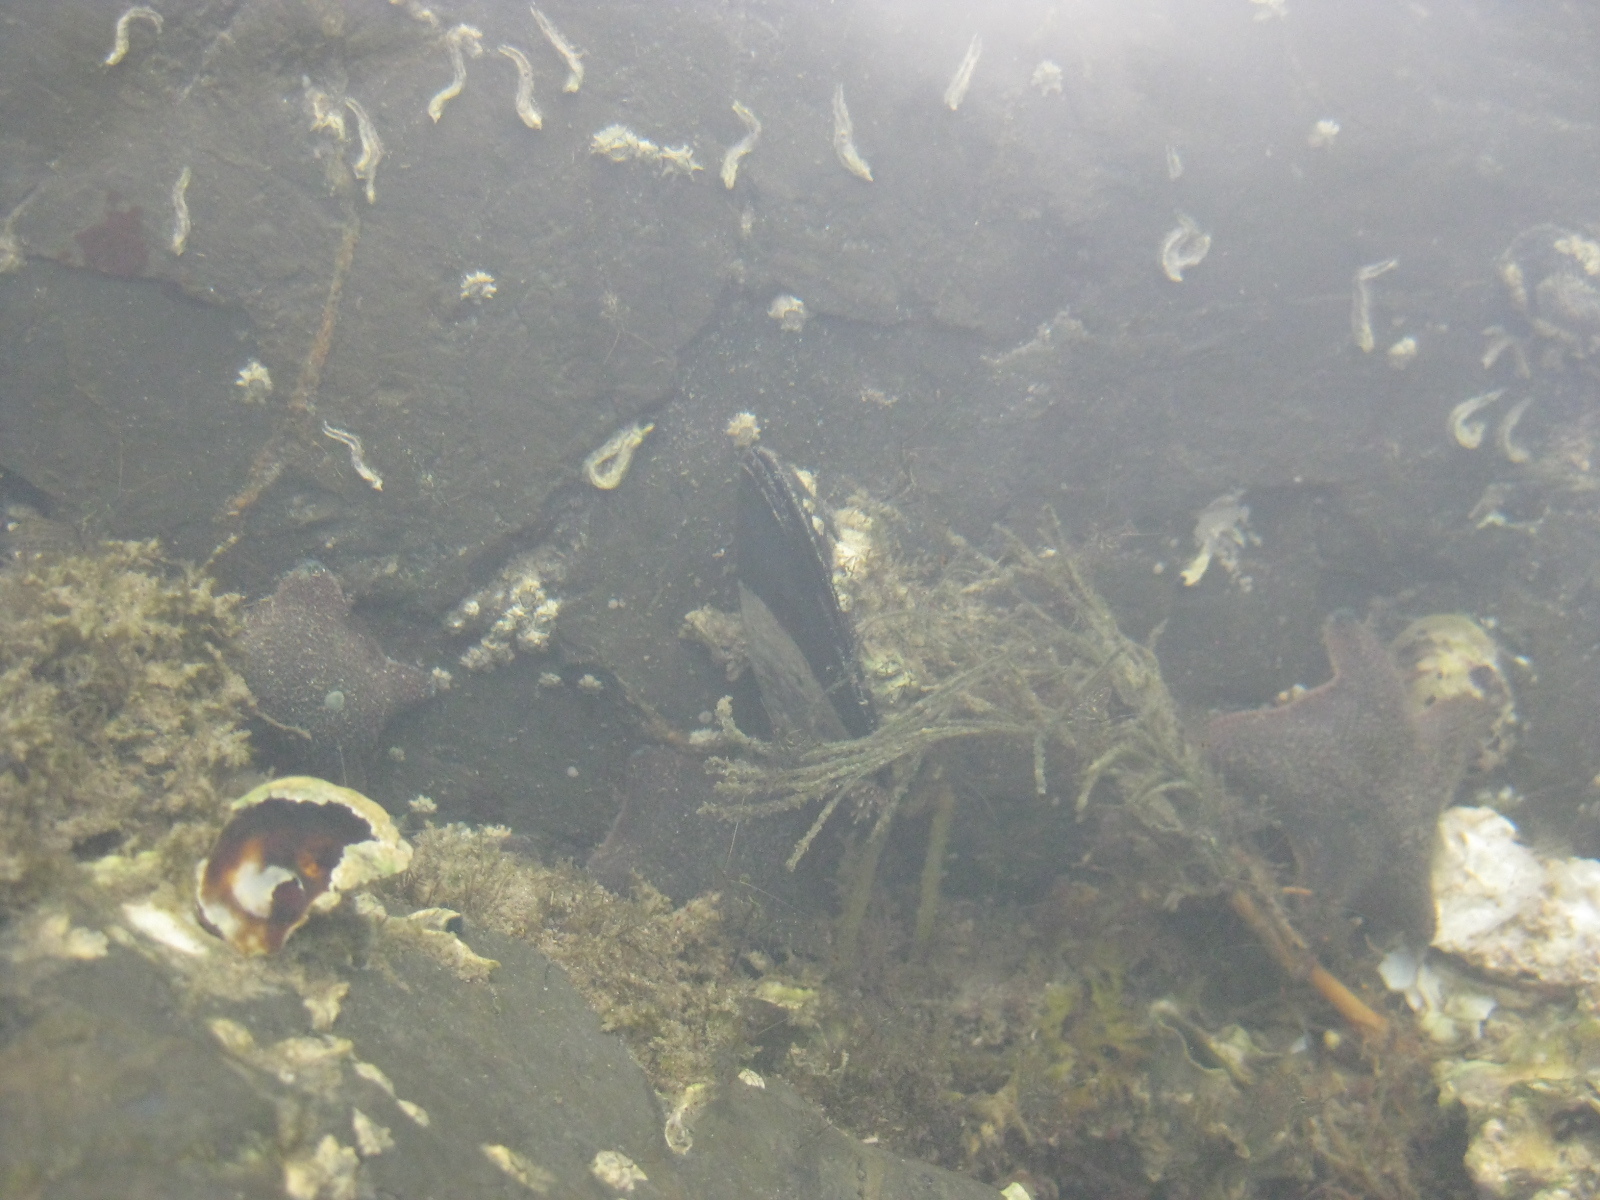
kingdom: Animalia
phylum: Mollusca
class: Bivalvia
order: Mytilida
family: Mytilidae
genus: Perna
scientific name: Perna canaliculus
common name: New zealand greenshelltm
